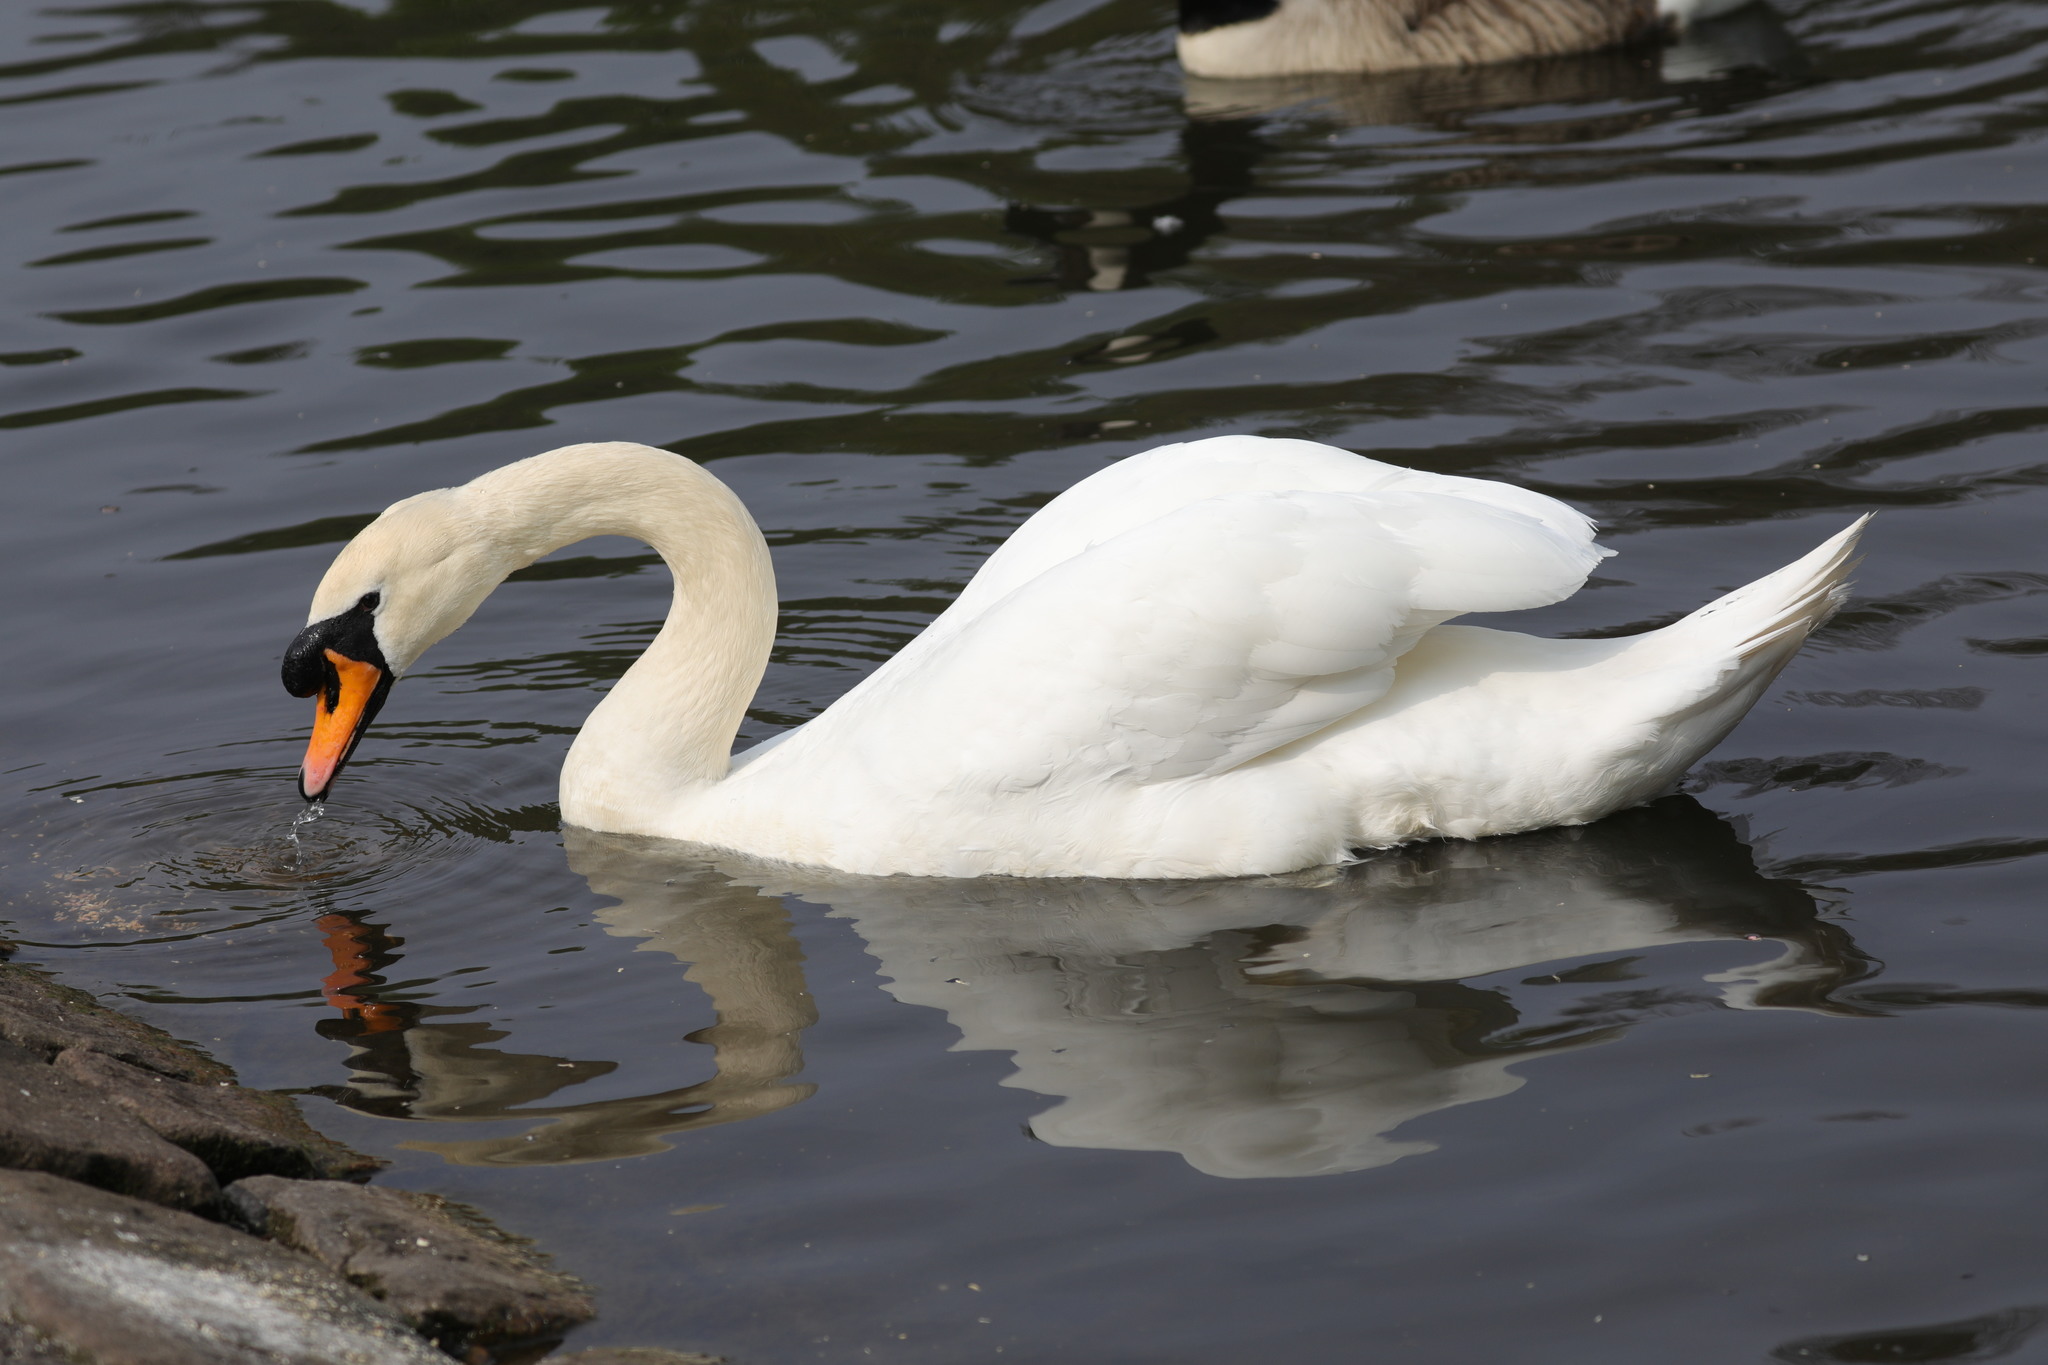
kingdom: Animalia
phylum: Chordata
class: Aves
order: Anseriformes
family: Anatidae
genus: Cygnus
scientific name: Cygnus olor
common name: Mute swan
